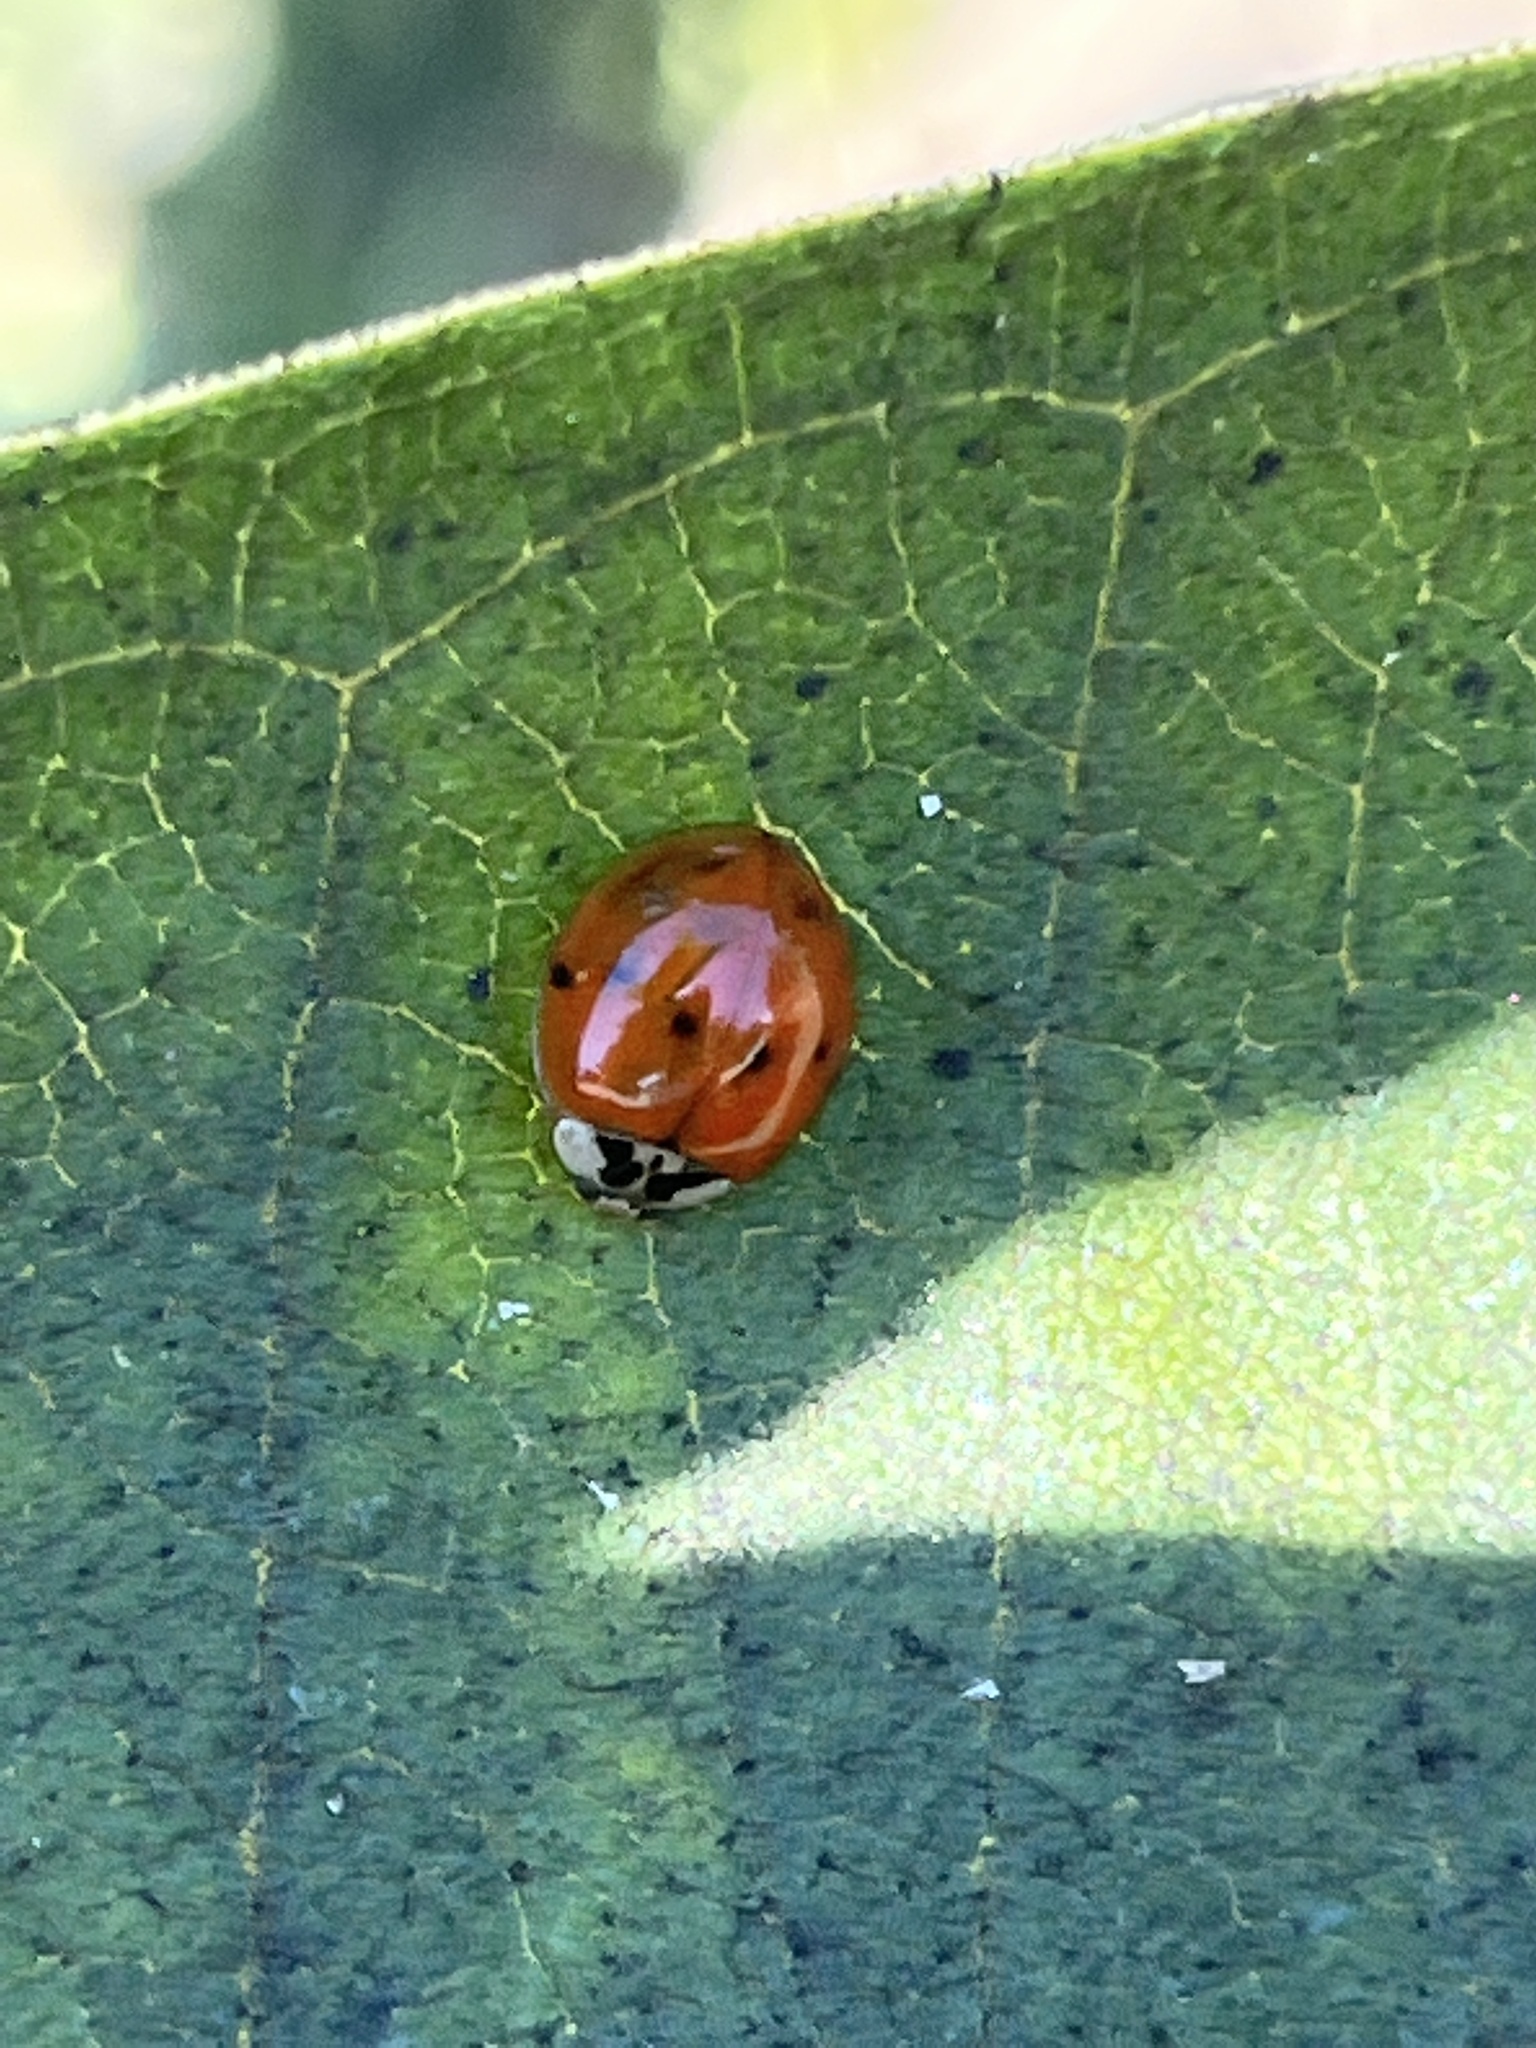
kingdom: Animalia
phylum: Arthropoda
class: Insecta
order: Coleoptera
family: Coccinellidae
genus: Harmonia
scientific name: Harmonia axyridis
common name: Harlequin ladybird
